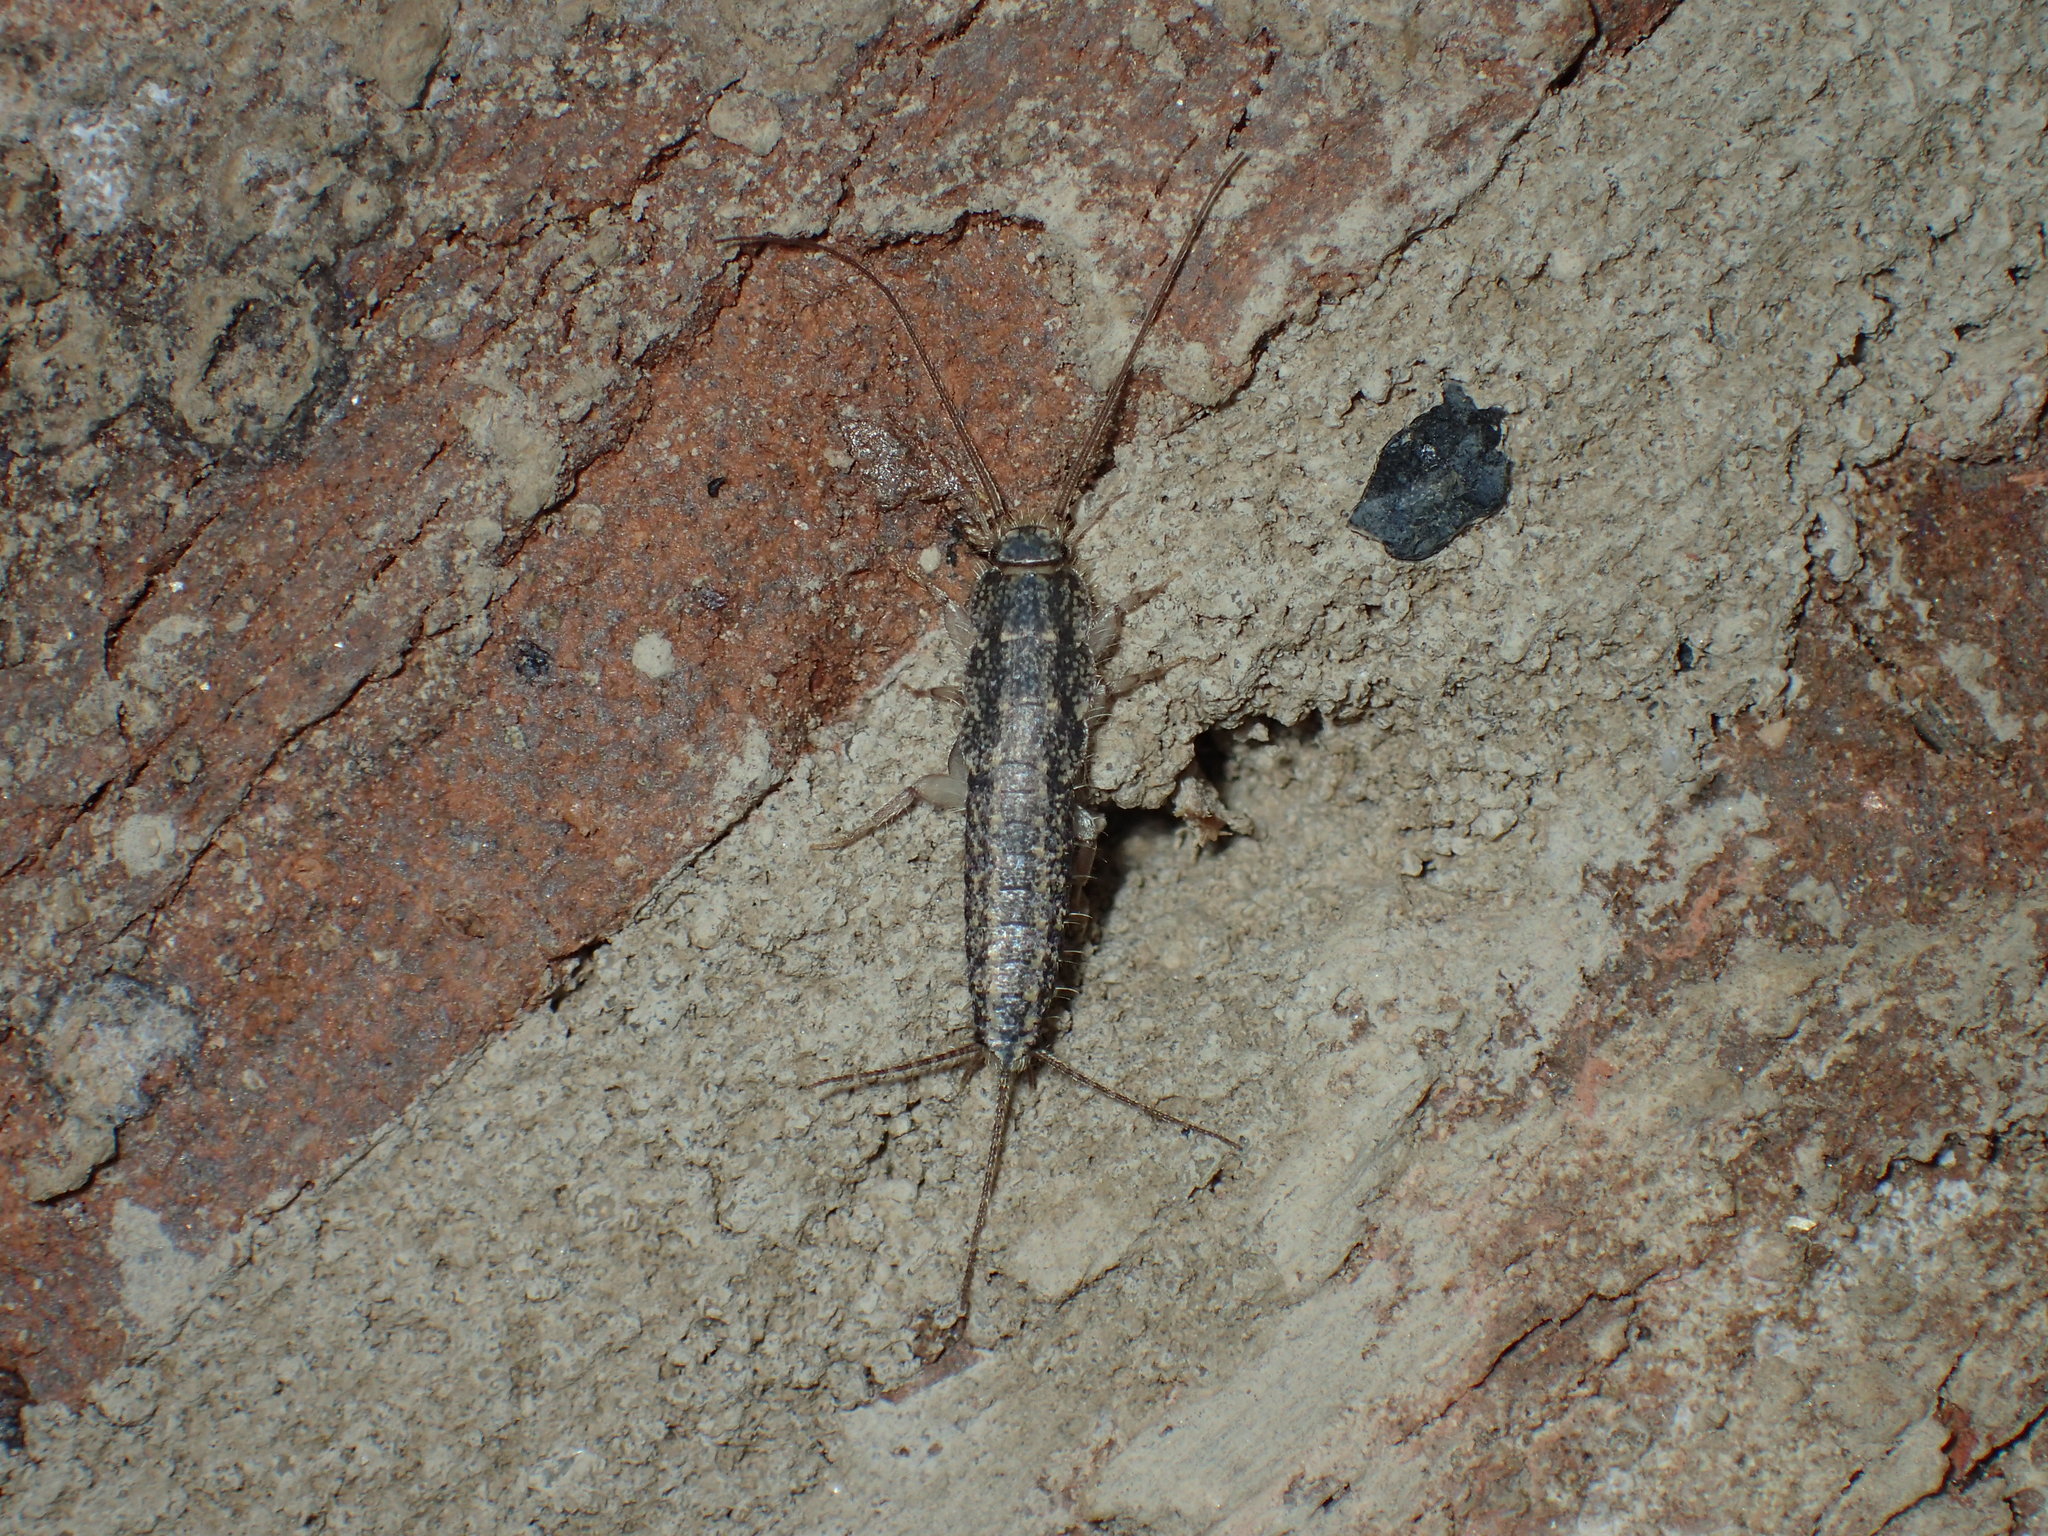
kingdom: Animalia
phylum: Arthropoda
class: Insecta
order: Zygentoma
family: Lepismatidae
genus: Ctenolepisma
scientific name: Ctenolepisma lineata
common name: Four-lined silverfish
